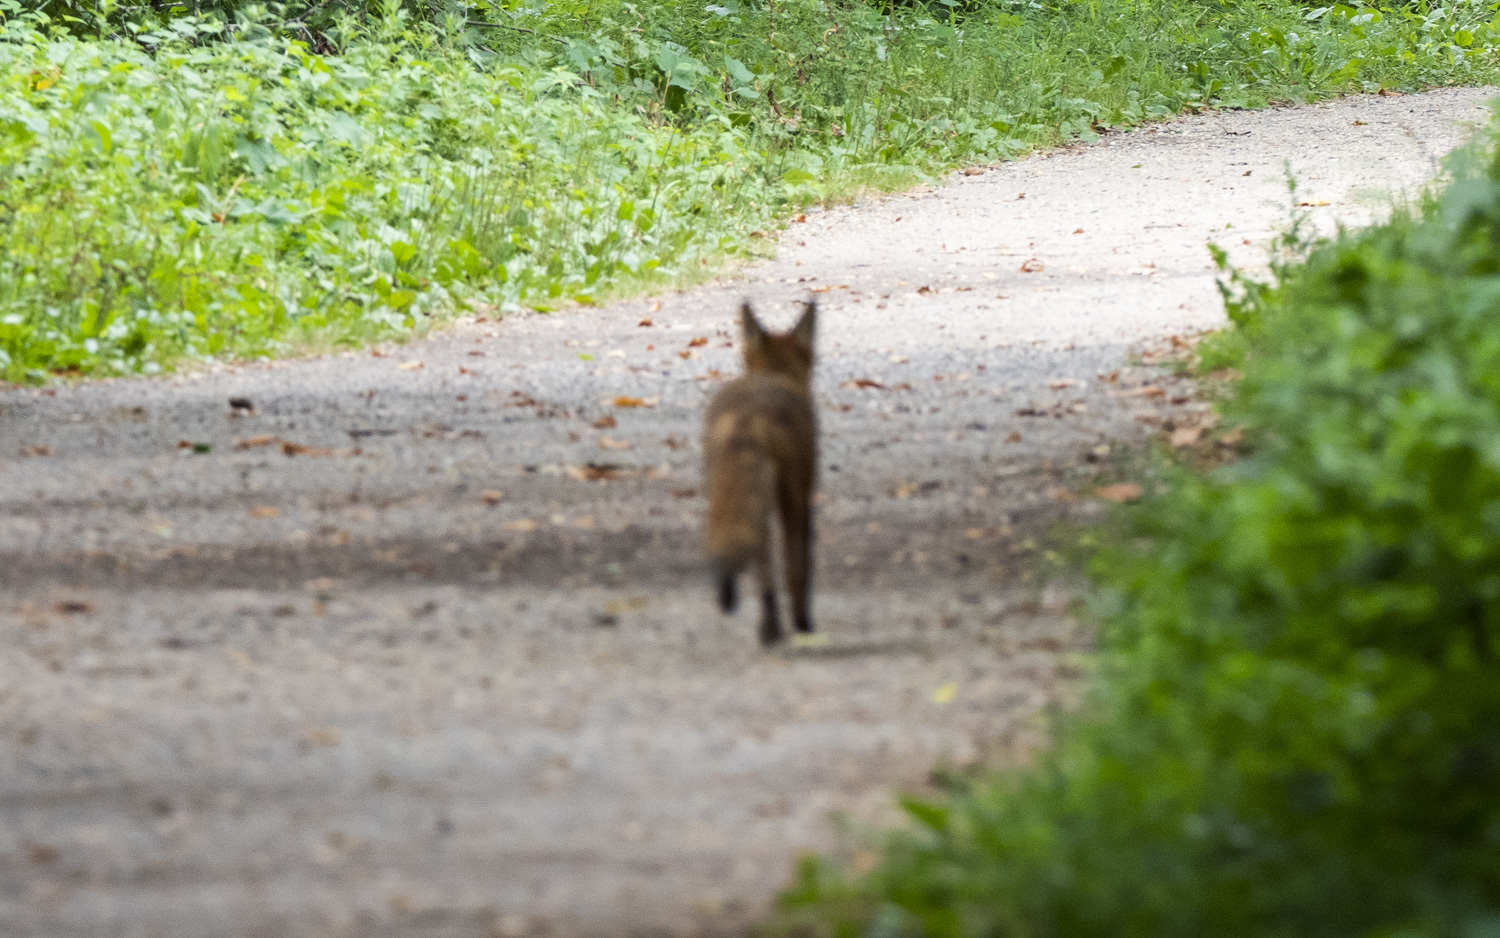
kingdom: Animalia
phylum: Chordata
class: Mammalia
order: Carnivora
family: Canidae
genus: Vulpes
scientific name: Vulpes vulpes
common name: Red fox
